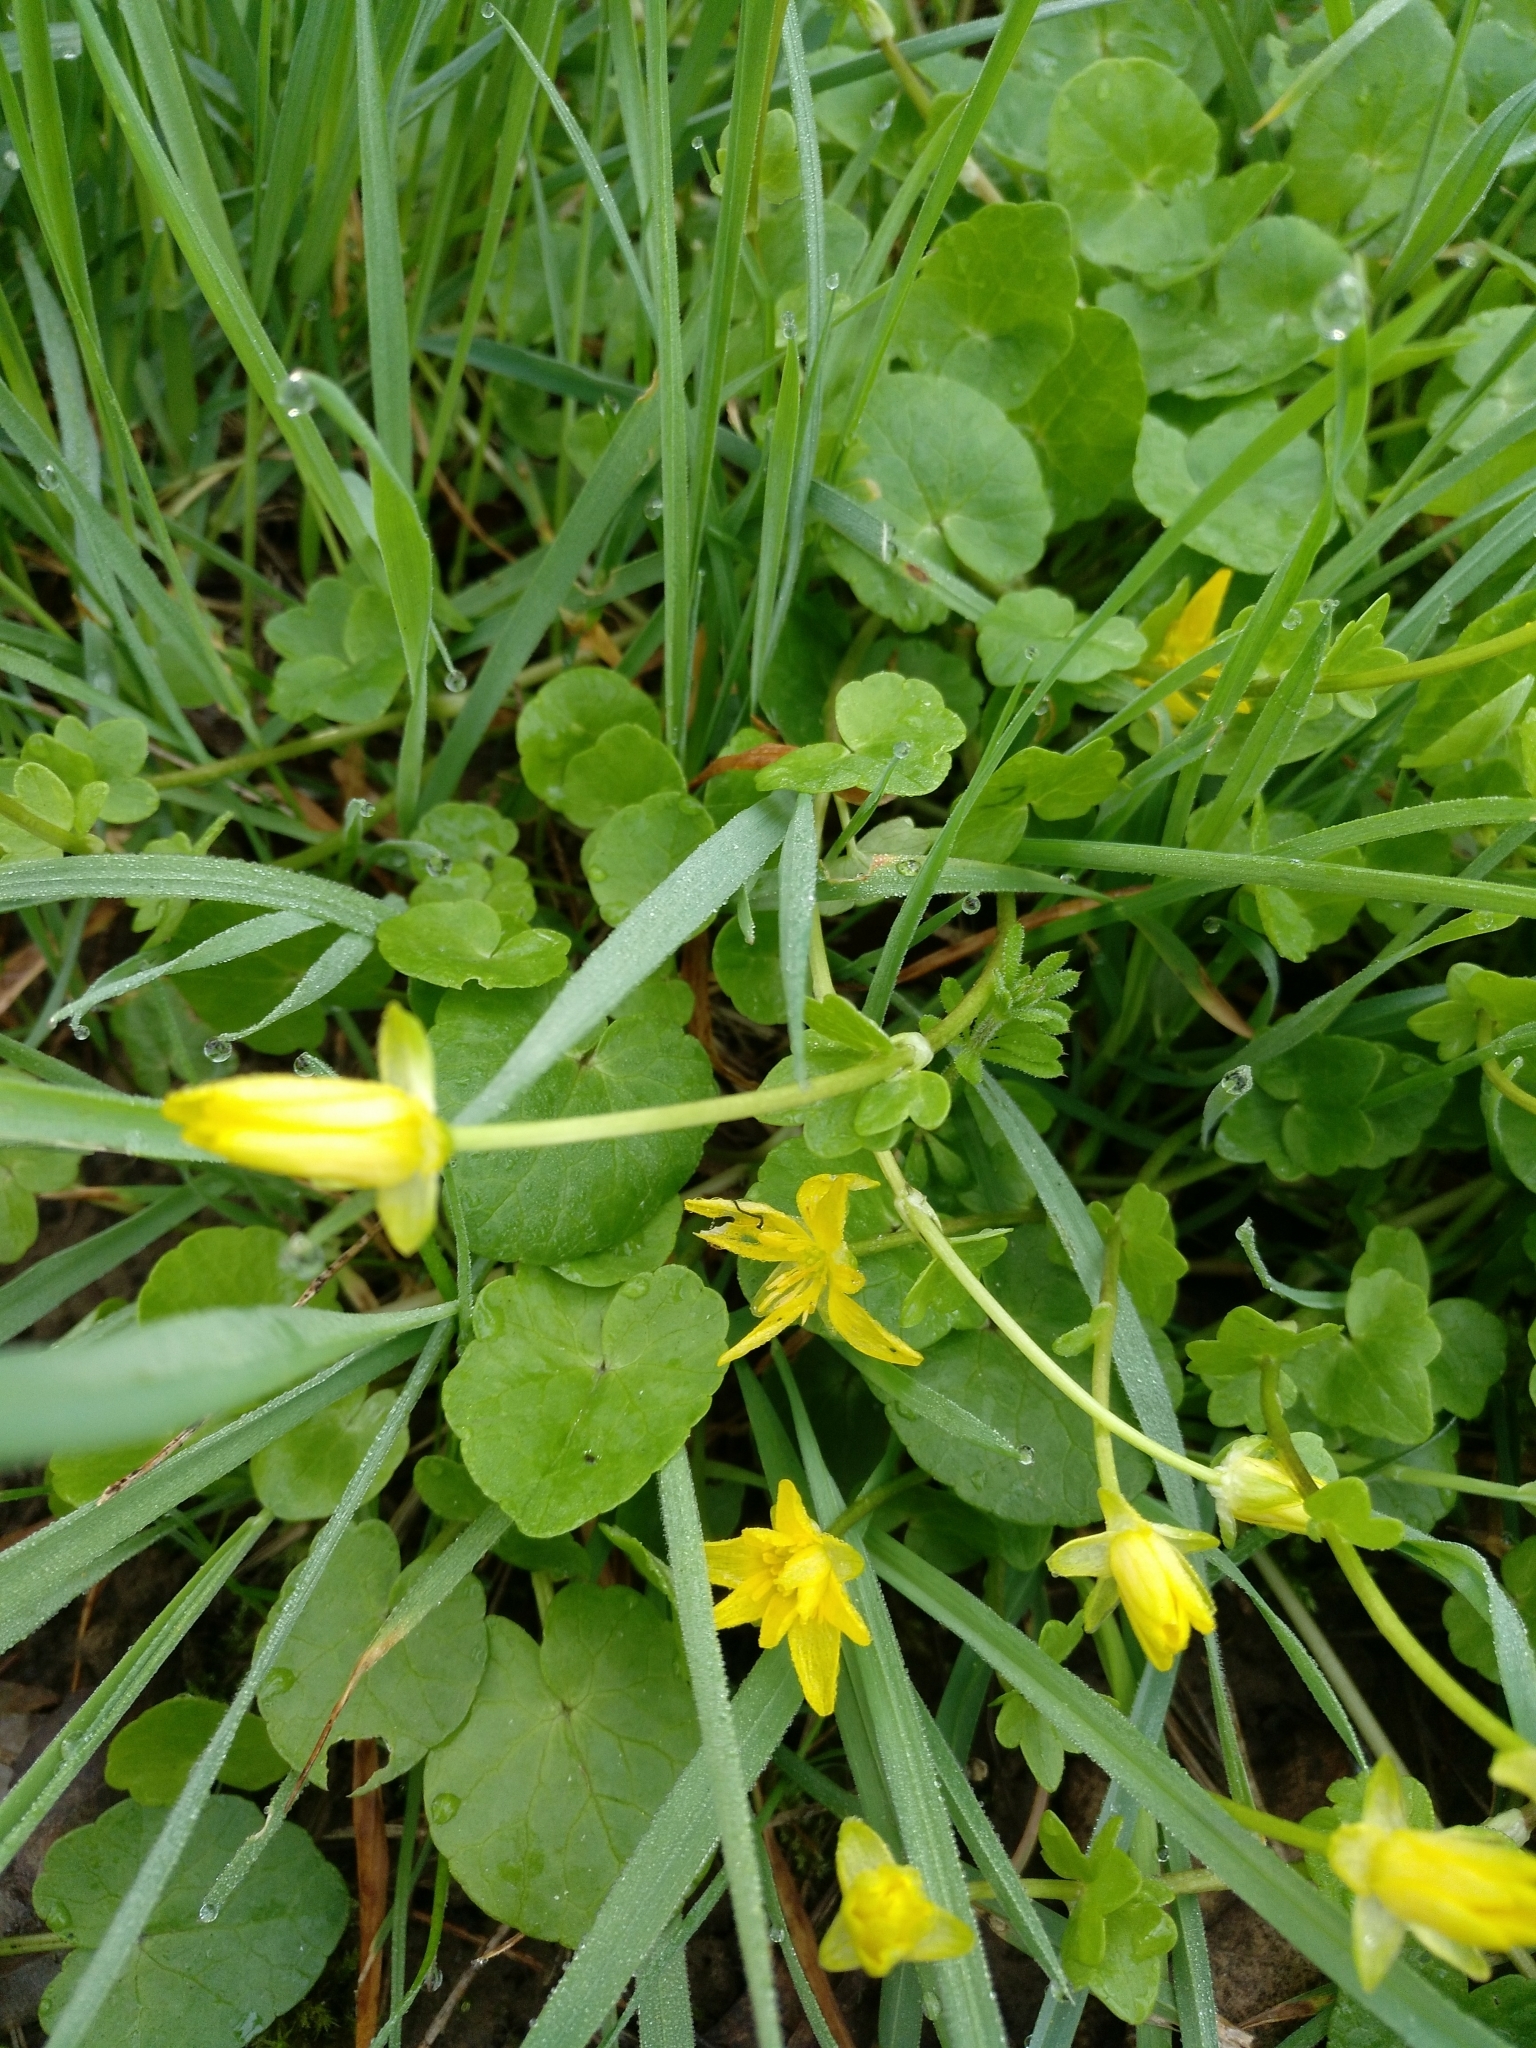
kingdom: Plantae
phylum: Tracheophyta
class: Magnoliopsida
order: Ranunculales
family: Ranunculaceae
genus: Ficaria
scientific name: Ficaria verna
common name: Lesser celandine
